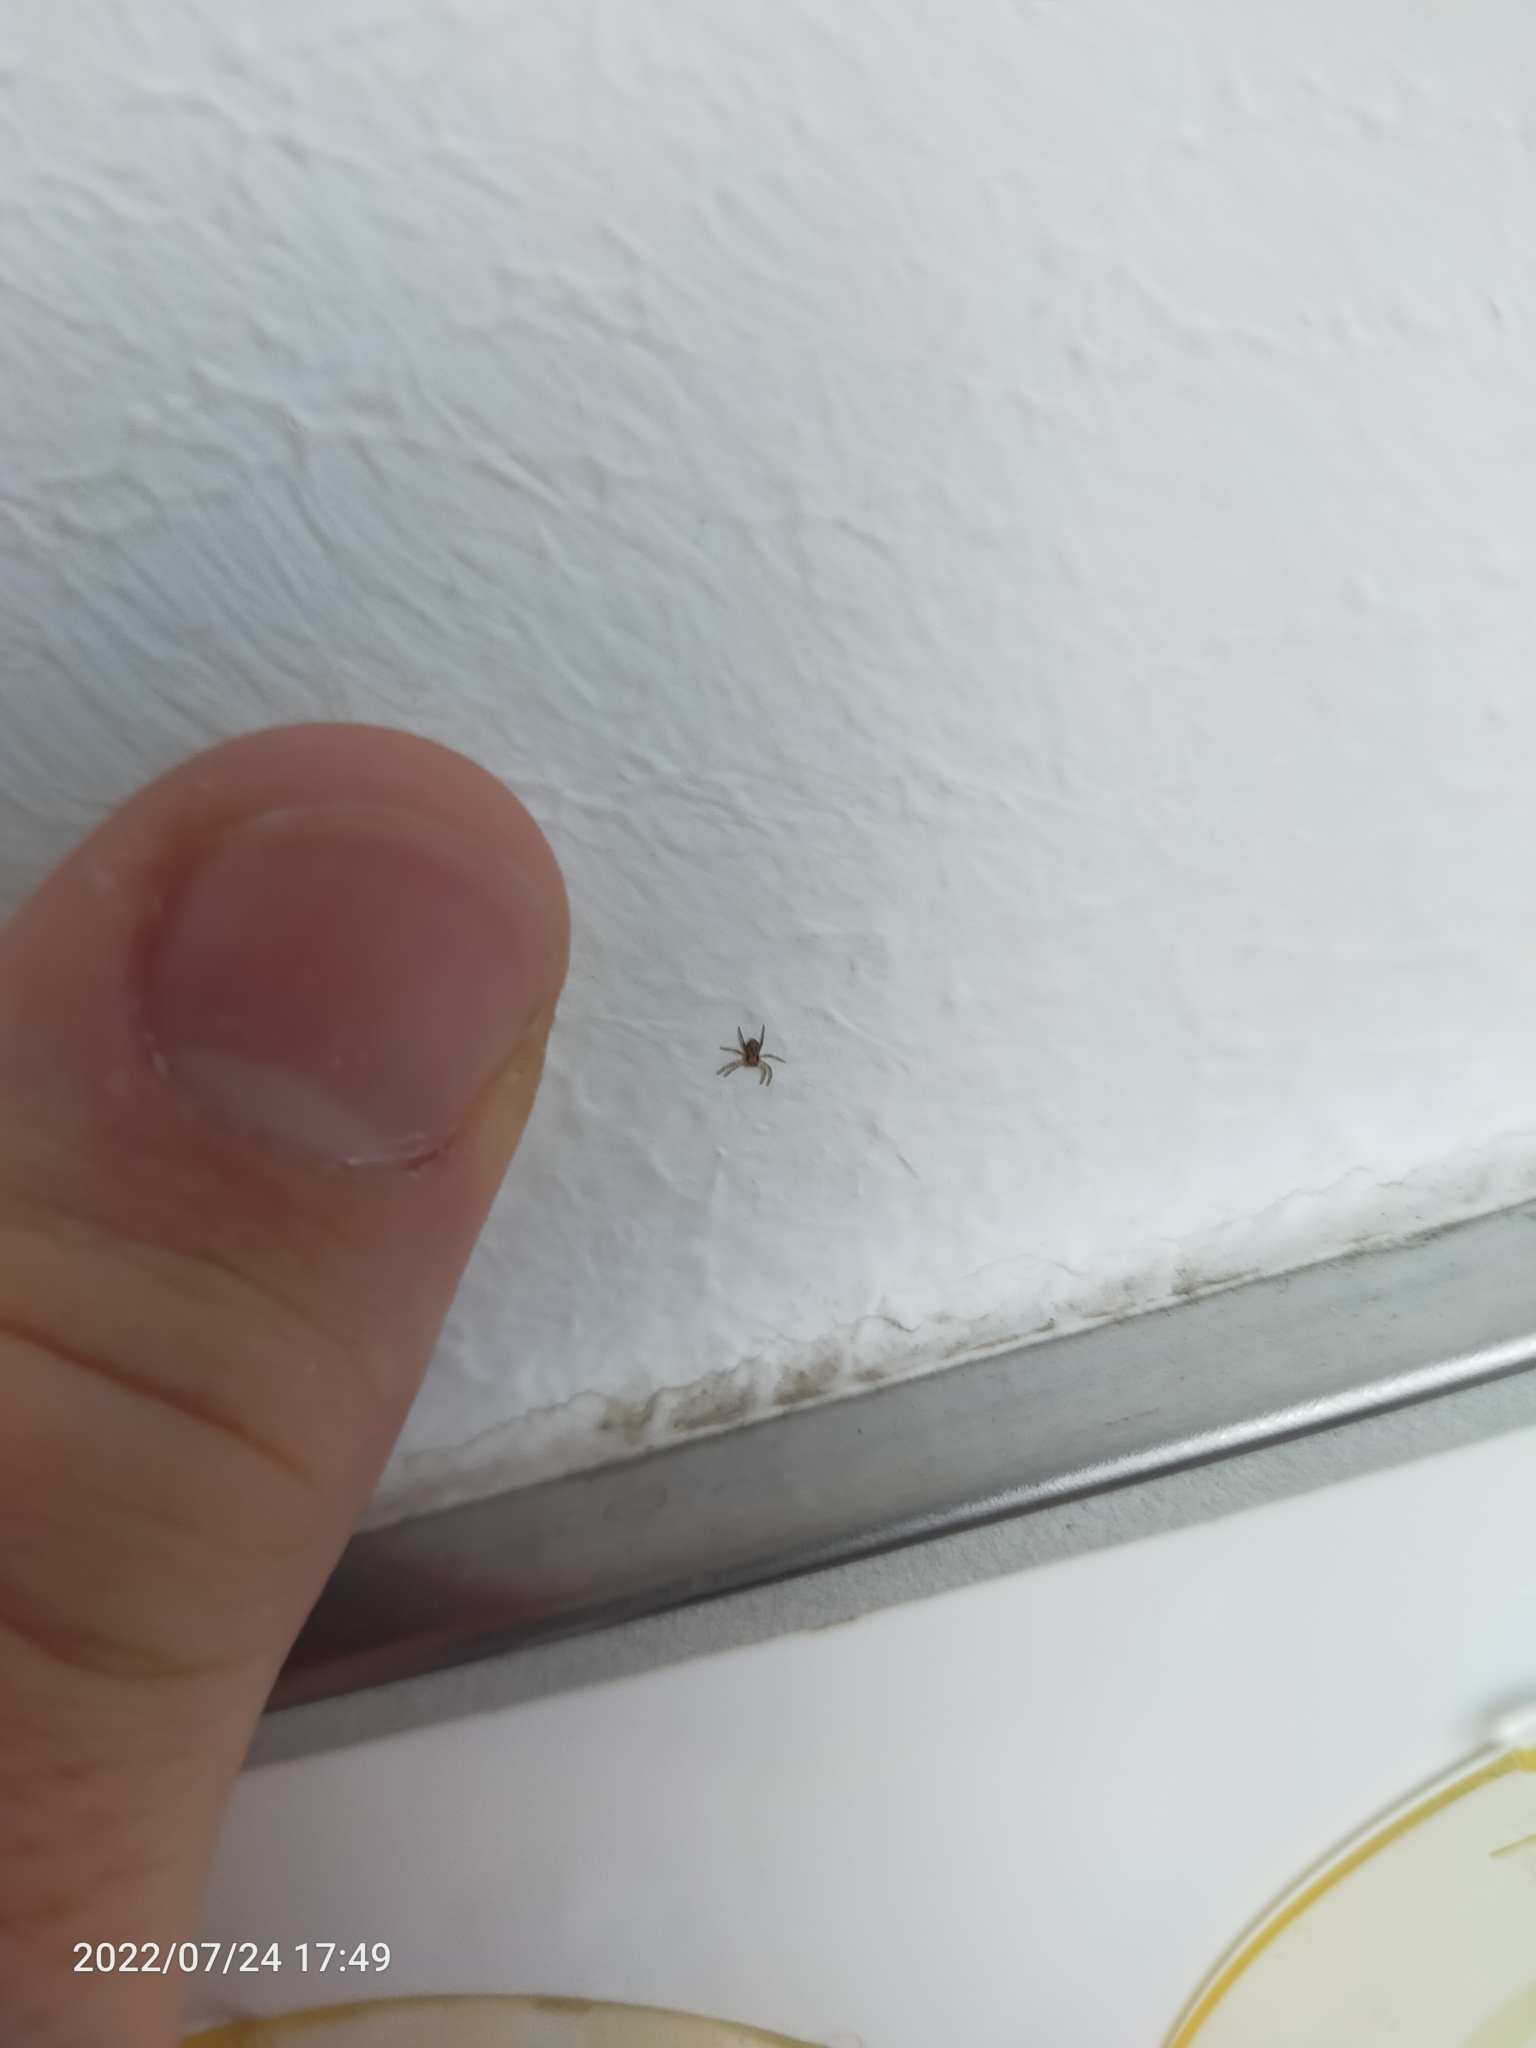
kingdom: Animalia
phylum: Arthropoda
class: Arachnida
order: Araneae
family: Philodromidae
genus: Philodromus
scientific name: Philodromus
